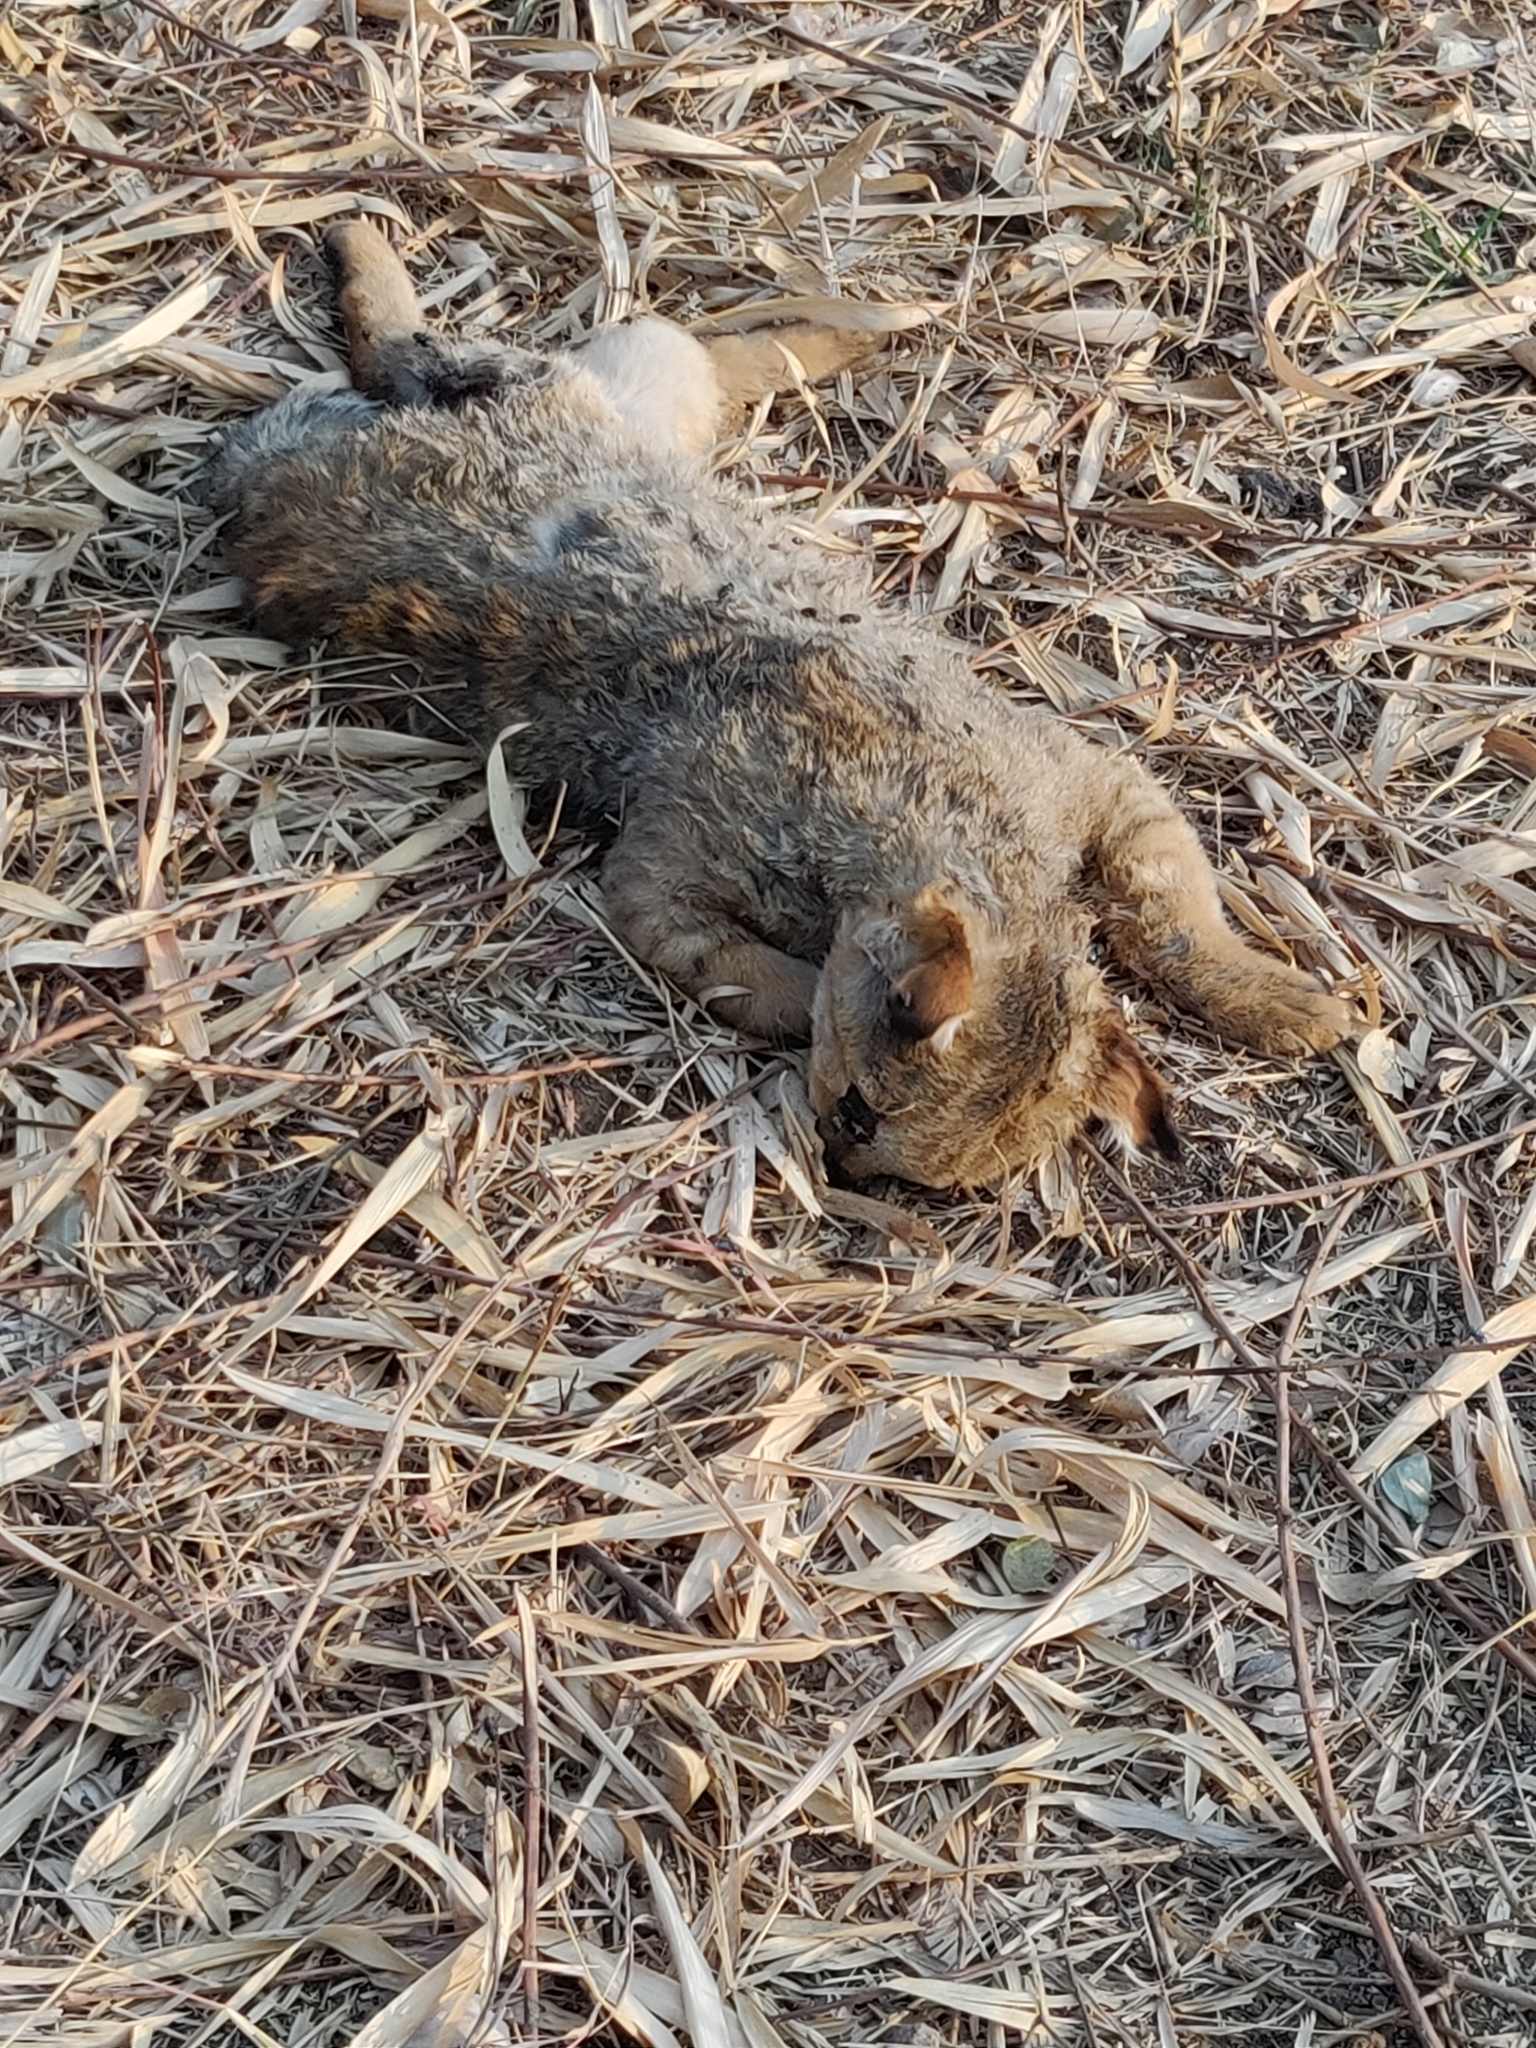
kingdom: Animalia
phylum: Chordata
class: Mammalia
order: Carnivora
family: Felidae
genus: Felis
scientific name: Felis catus
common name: Domestic cat
